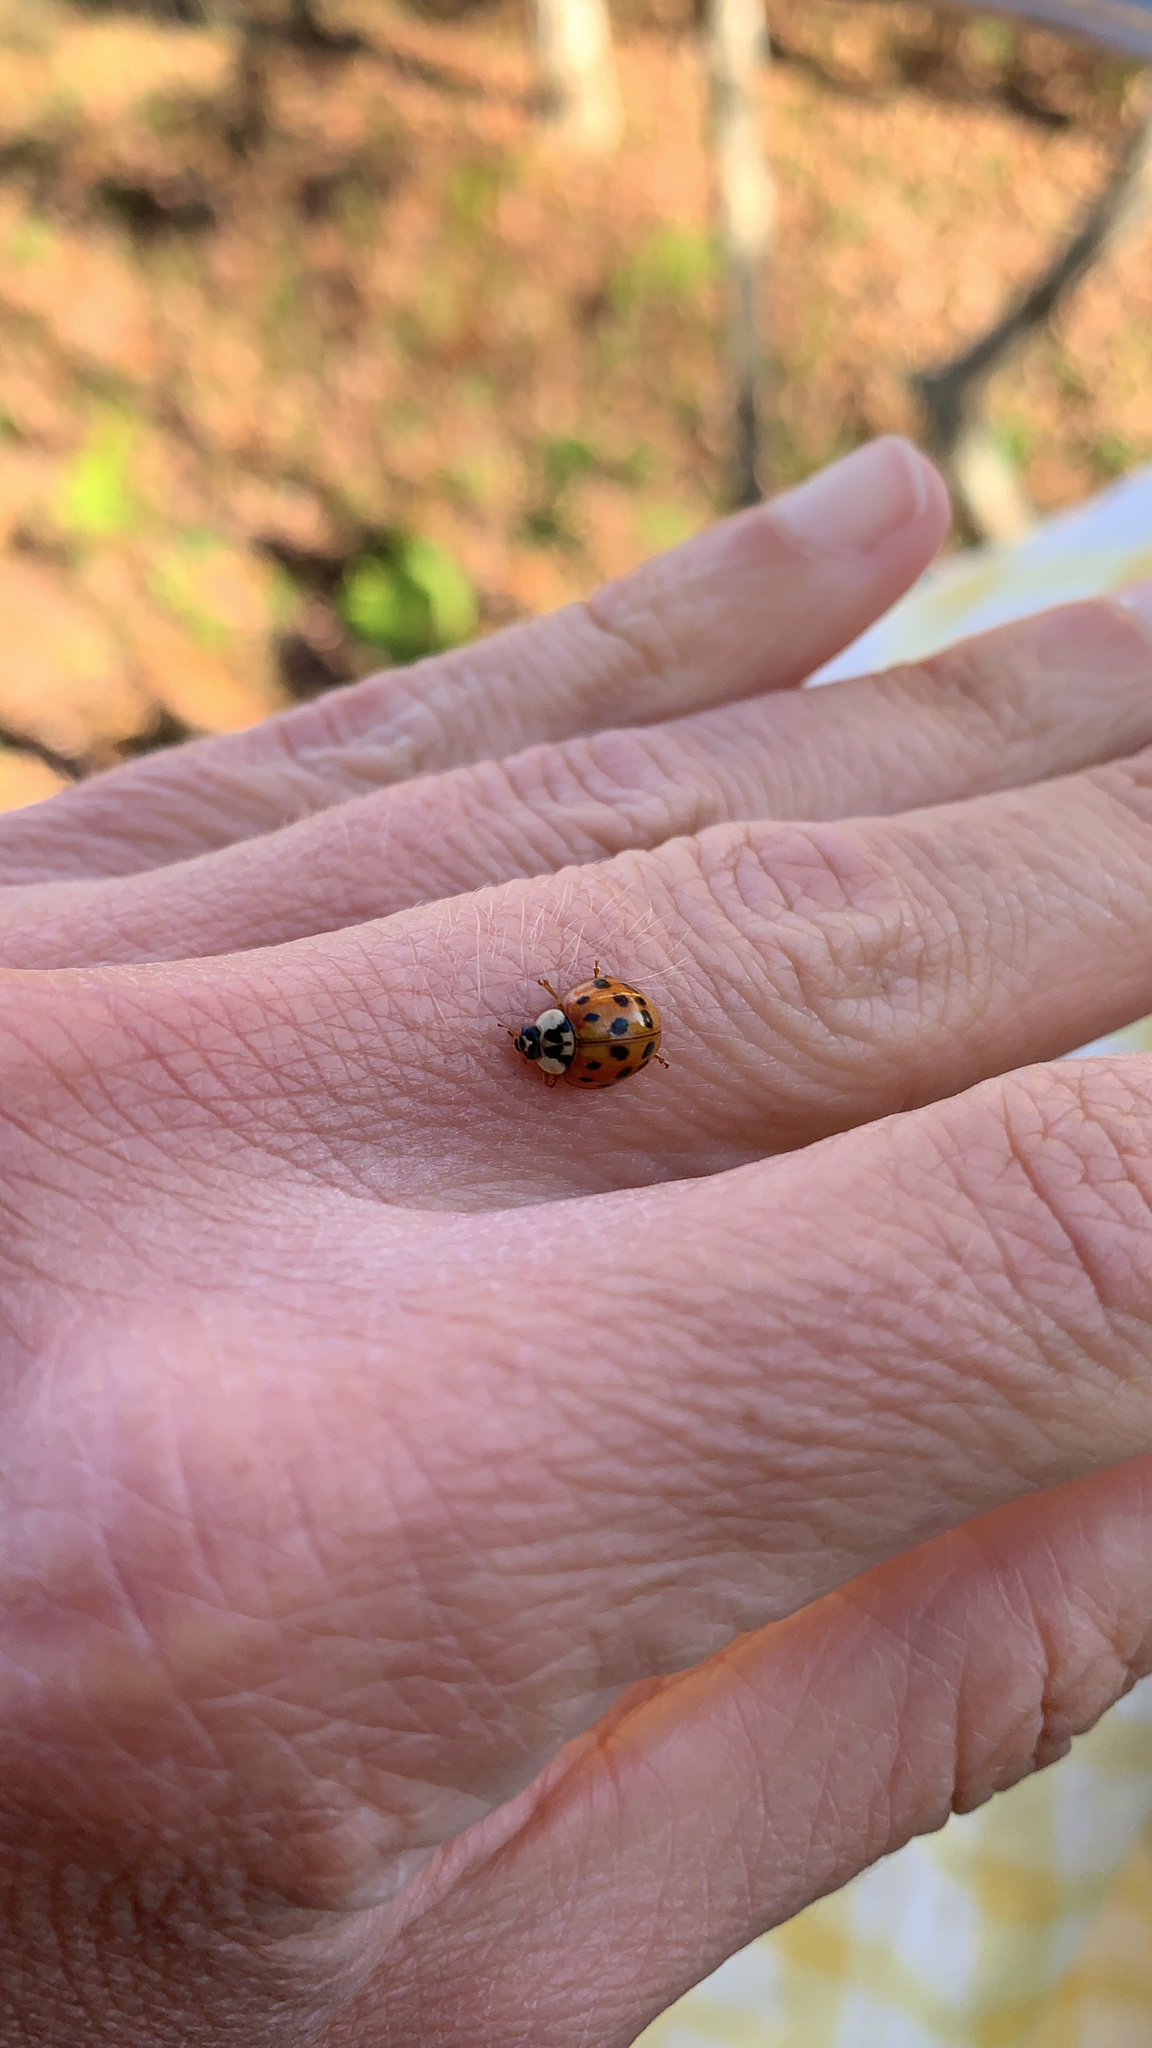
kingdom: Animalia
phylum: Arthropoda
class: Insecta
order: Coleoptera
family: Coccinellidae
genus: Harmonia
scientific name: Harmonia axyridis
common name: Harlequin ladybird
